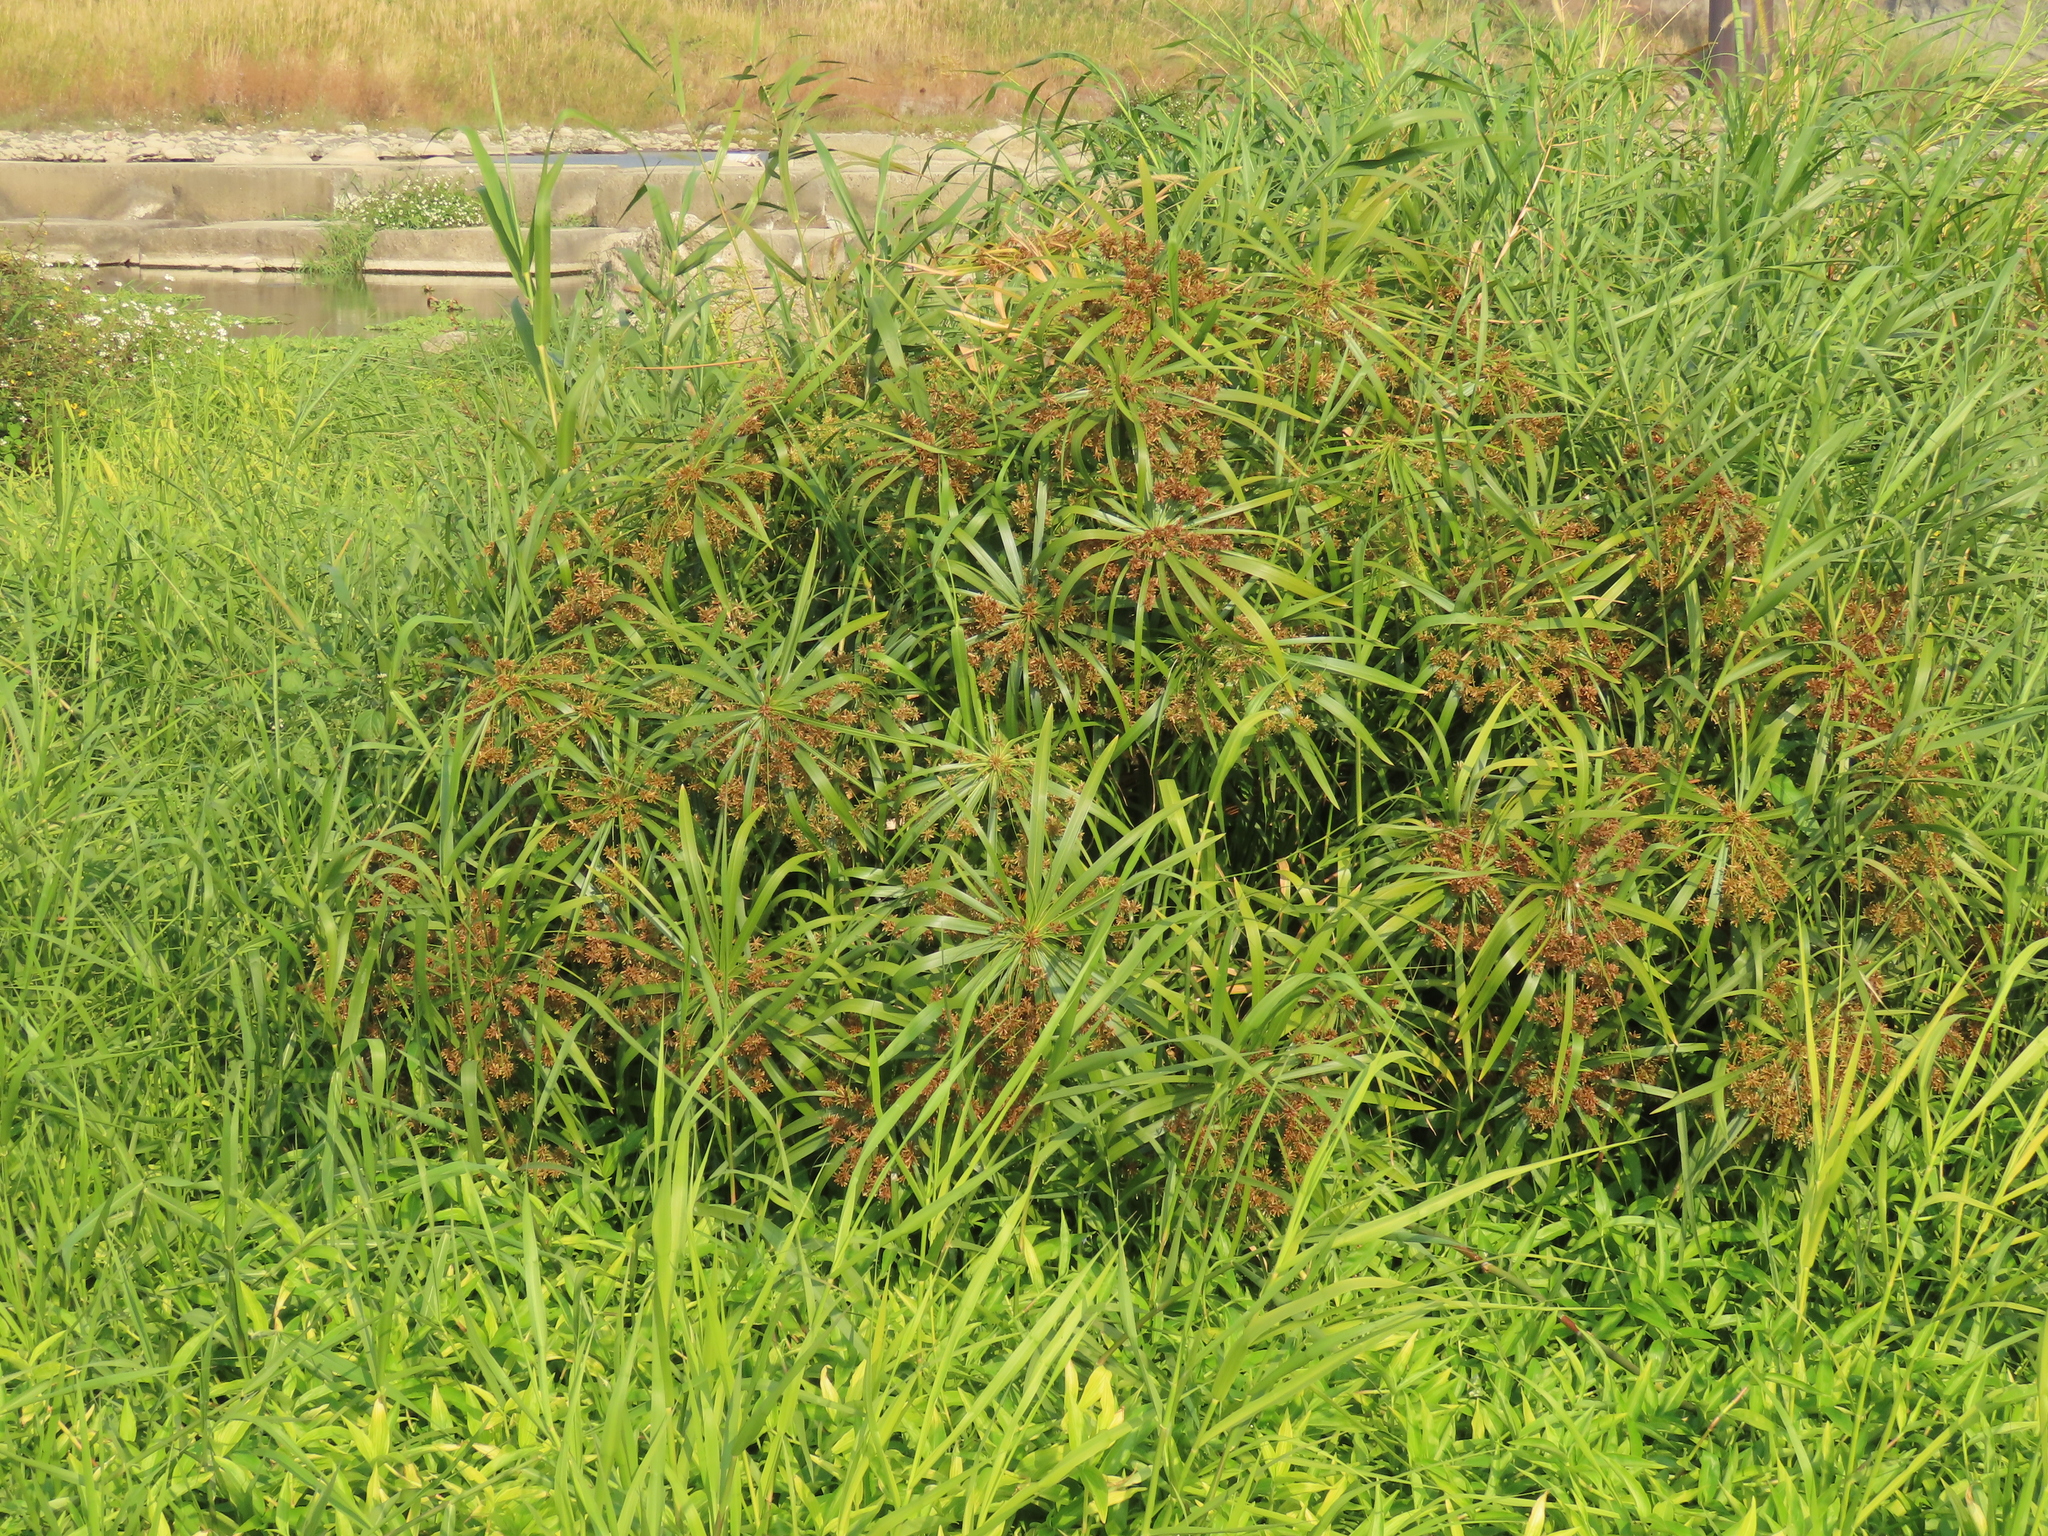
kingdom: Plantae
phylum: Tracheophyta
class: Liliopsida
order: Poales
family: Cyperaceae
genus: Cyperus
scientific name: Cyperus alternifolius
